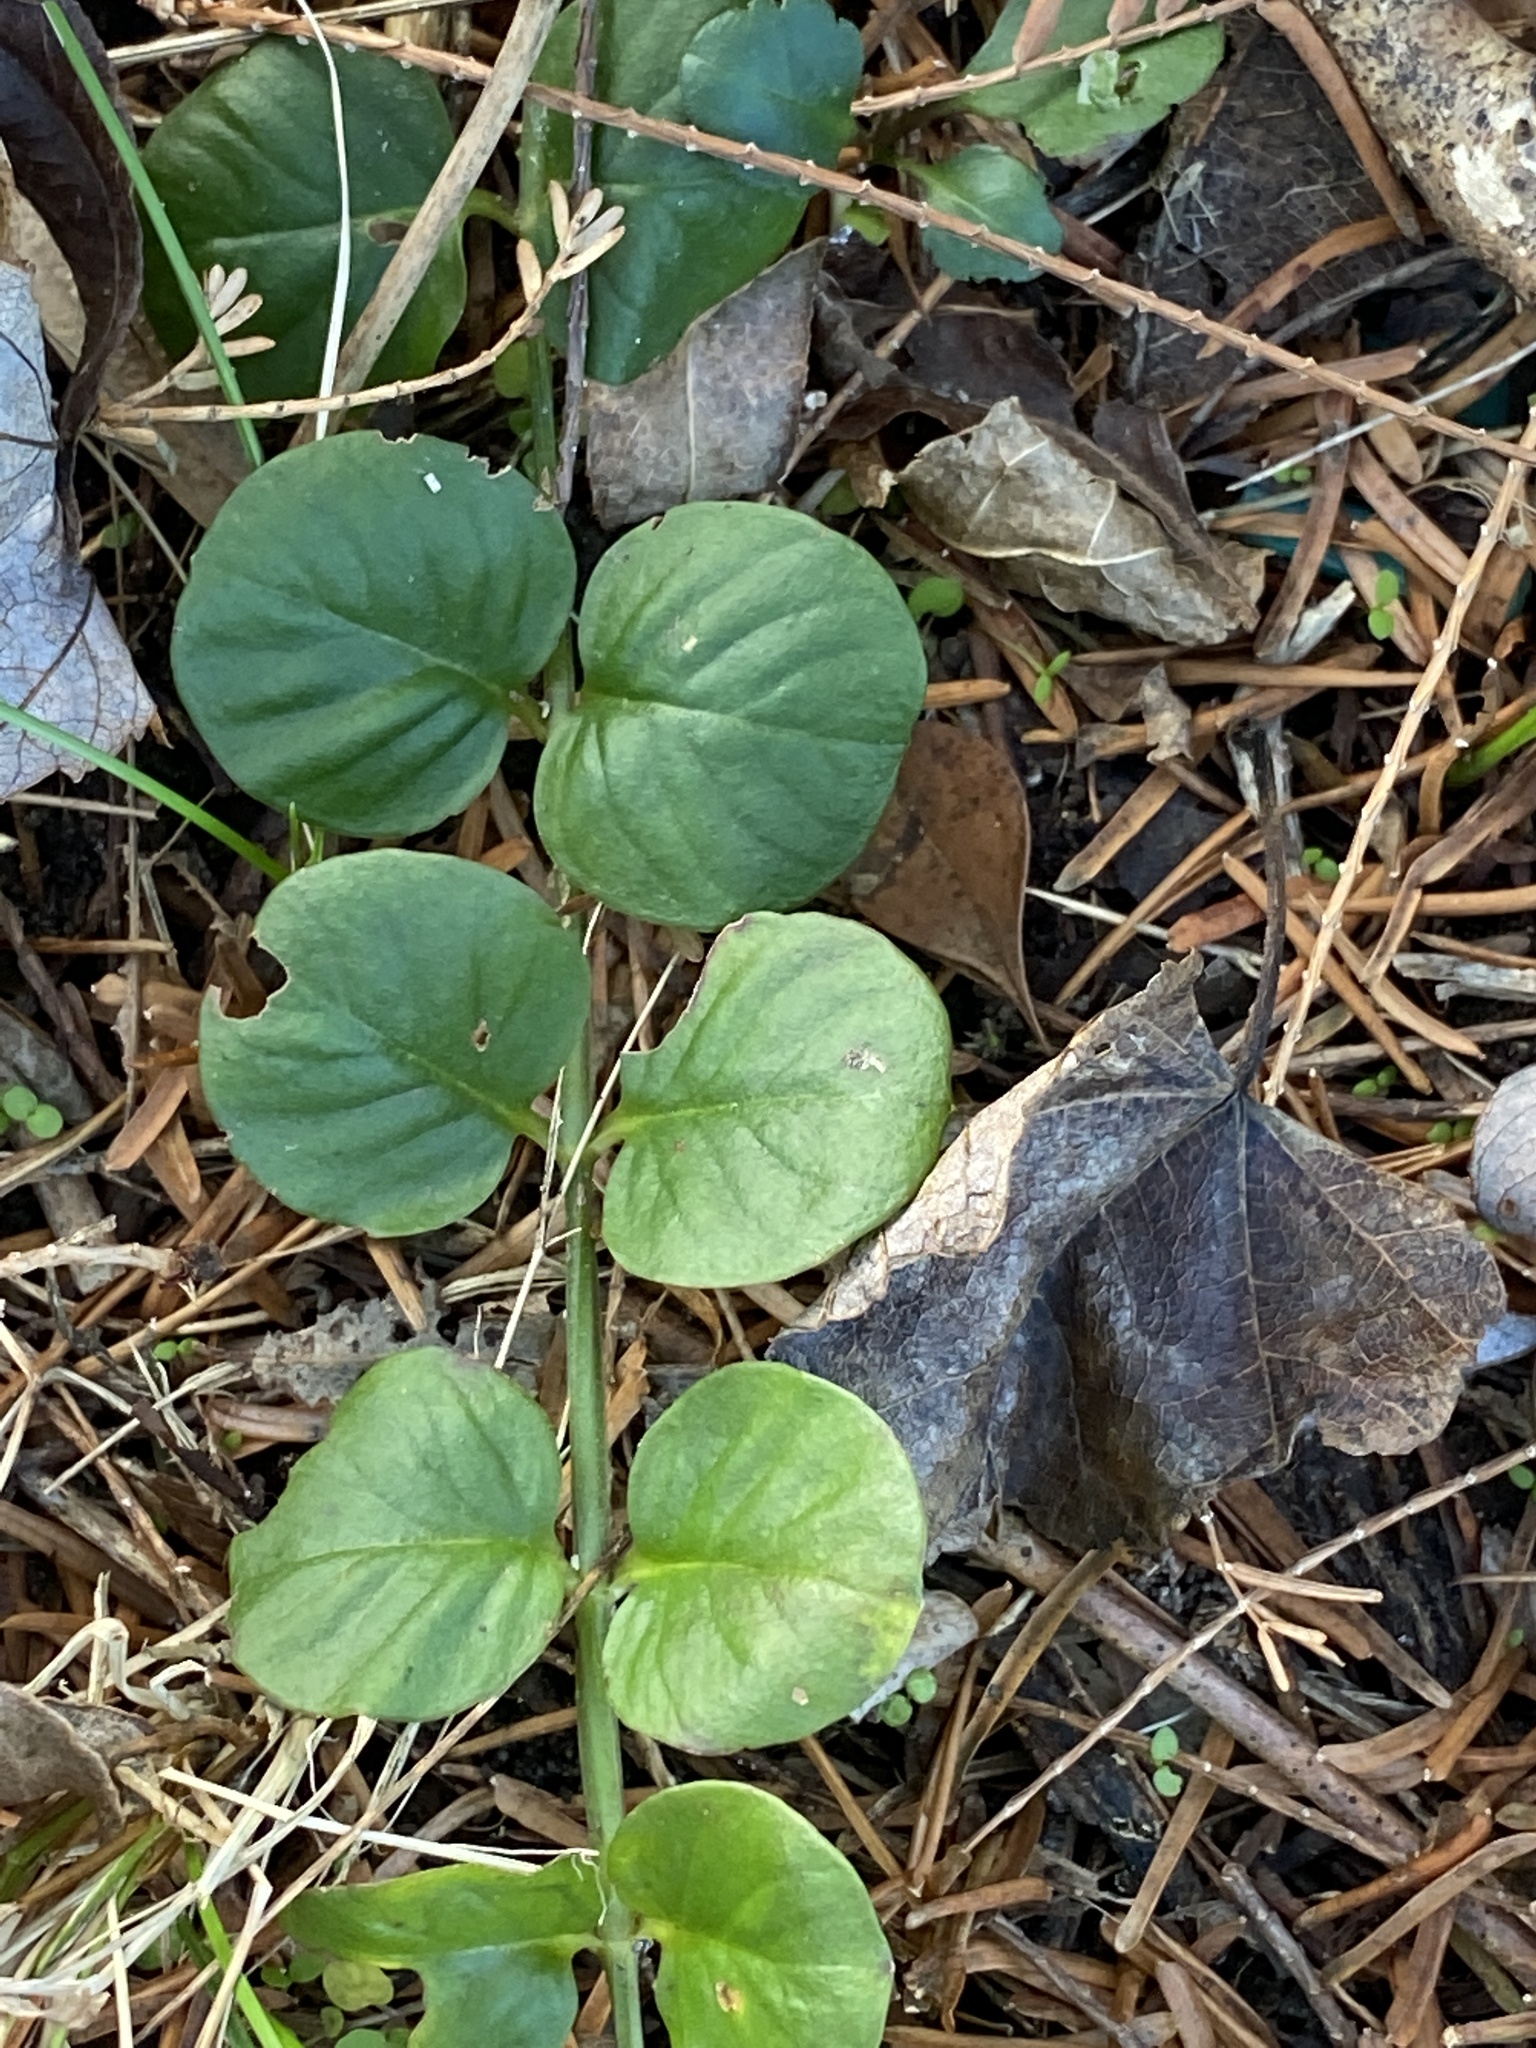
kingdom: Plantae
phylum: Tracheophyta
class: Magnoliopsida
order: Ericales
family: Primulaceae
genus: Lysimachia
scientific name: Lysimachia nummularia
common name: Moneywort
